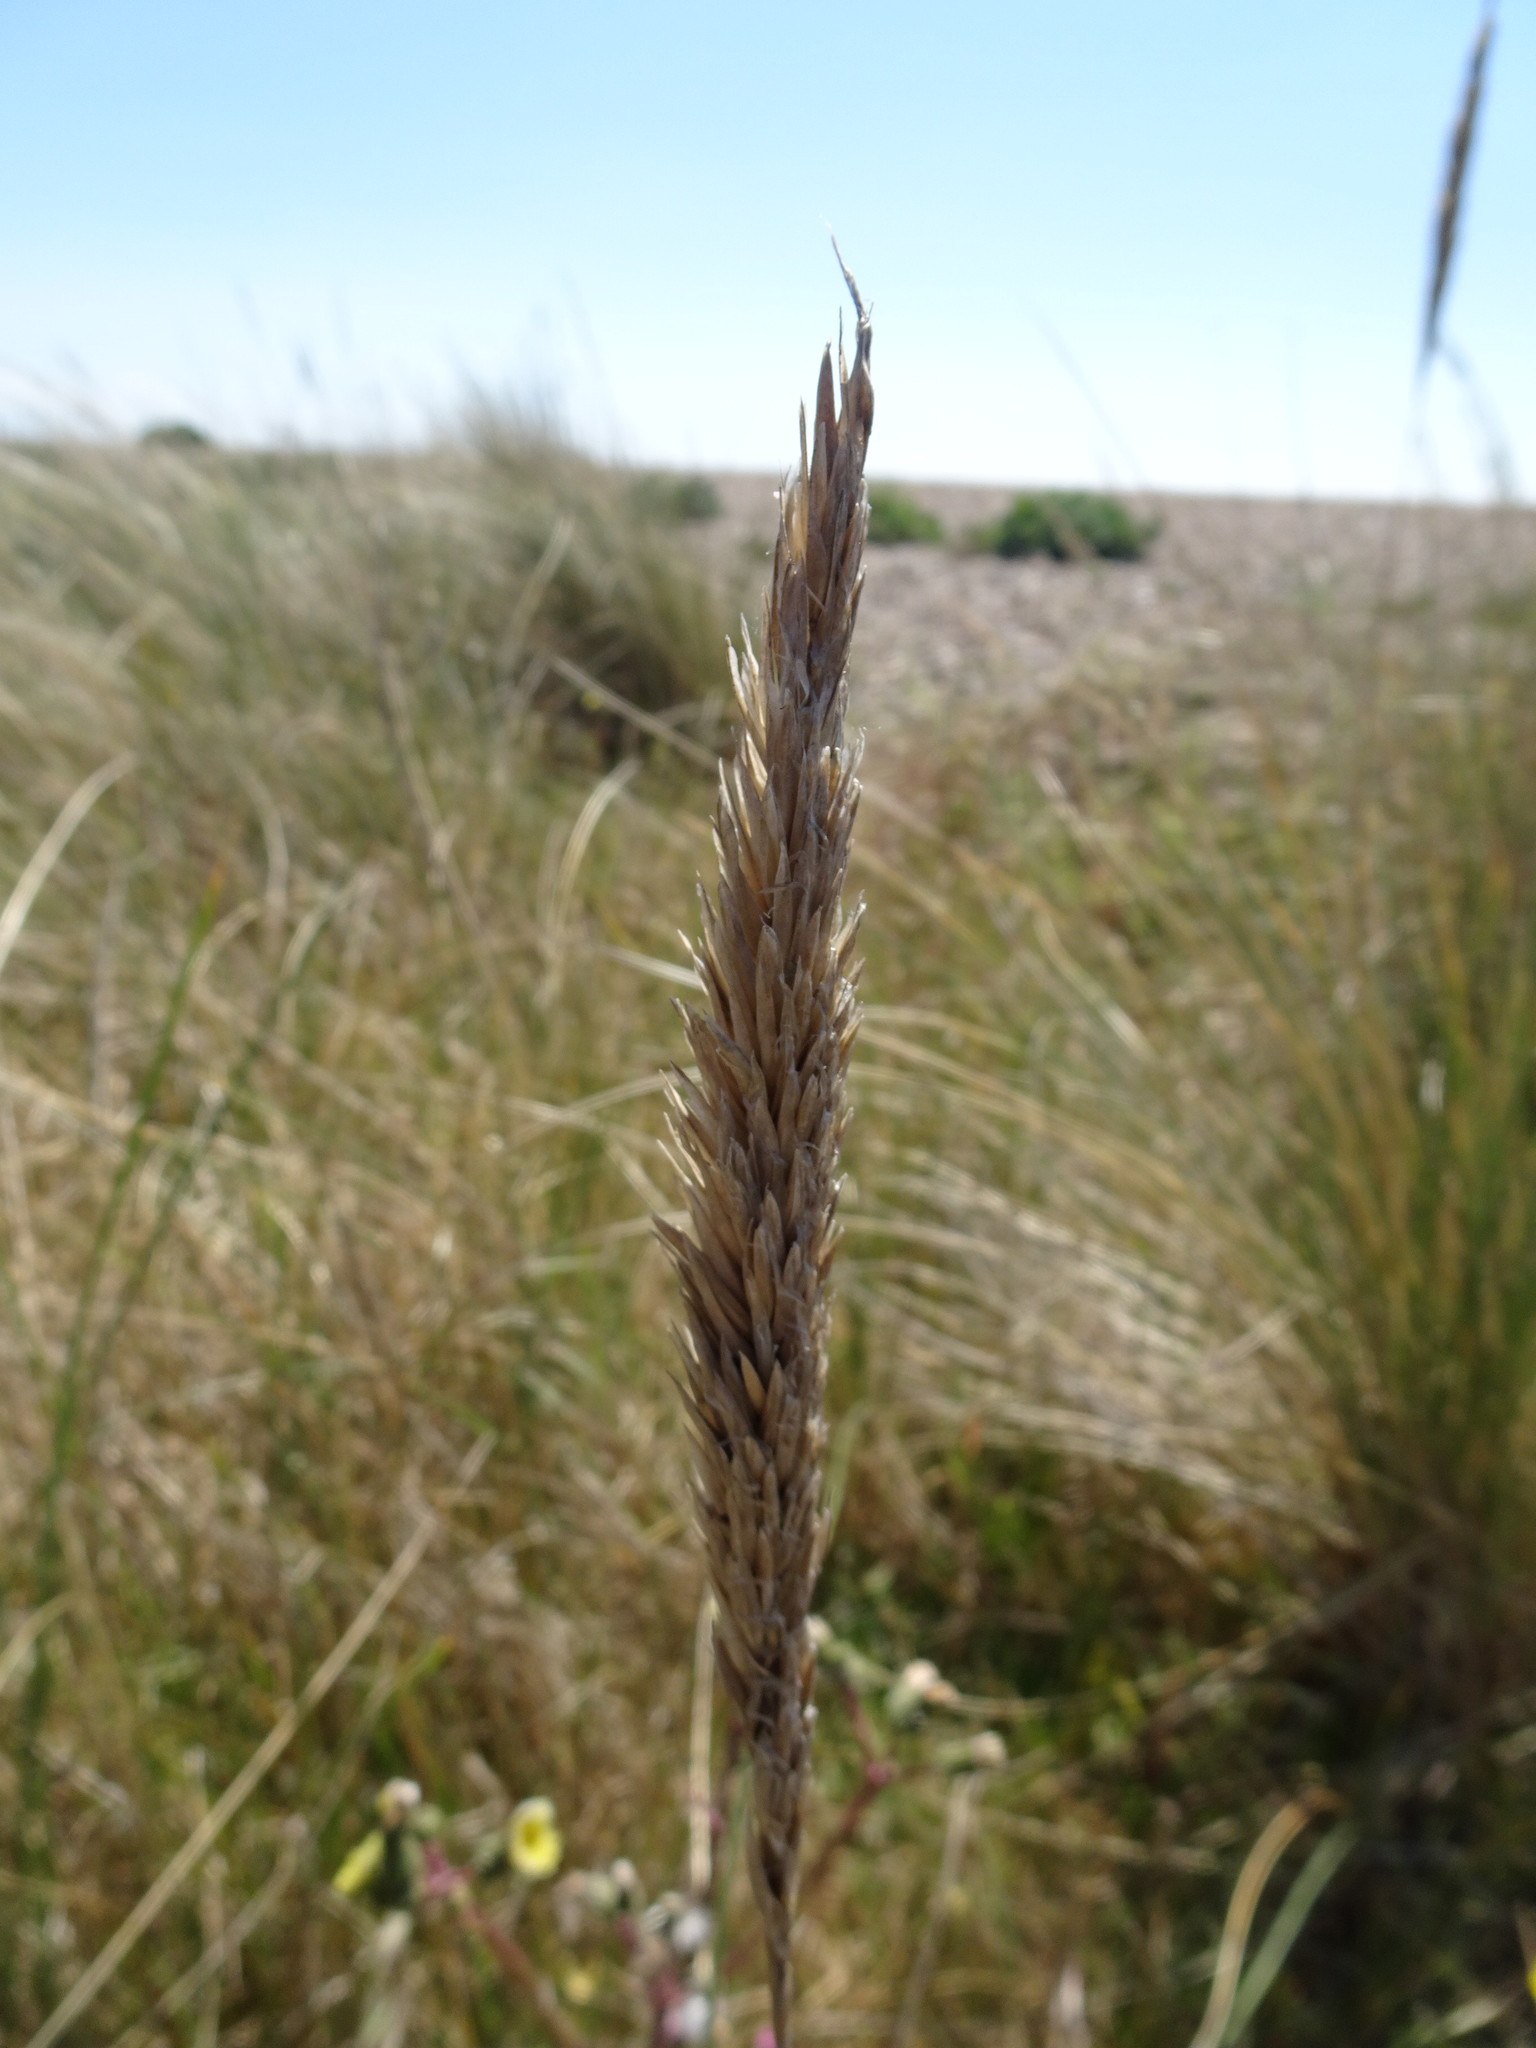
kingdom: Plantae
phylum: Tracheophyta
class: Liliopsida
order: Poales
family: Poaceae
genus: Calamagrostis
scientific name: Calamagrostis arenaria
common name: European beachgrass
